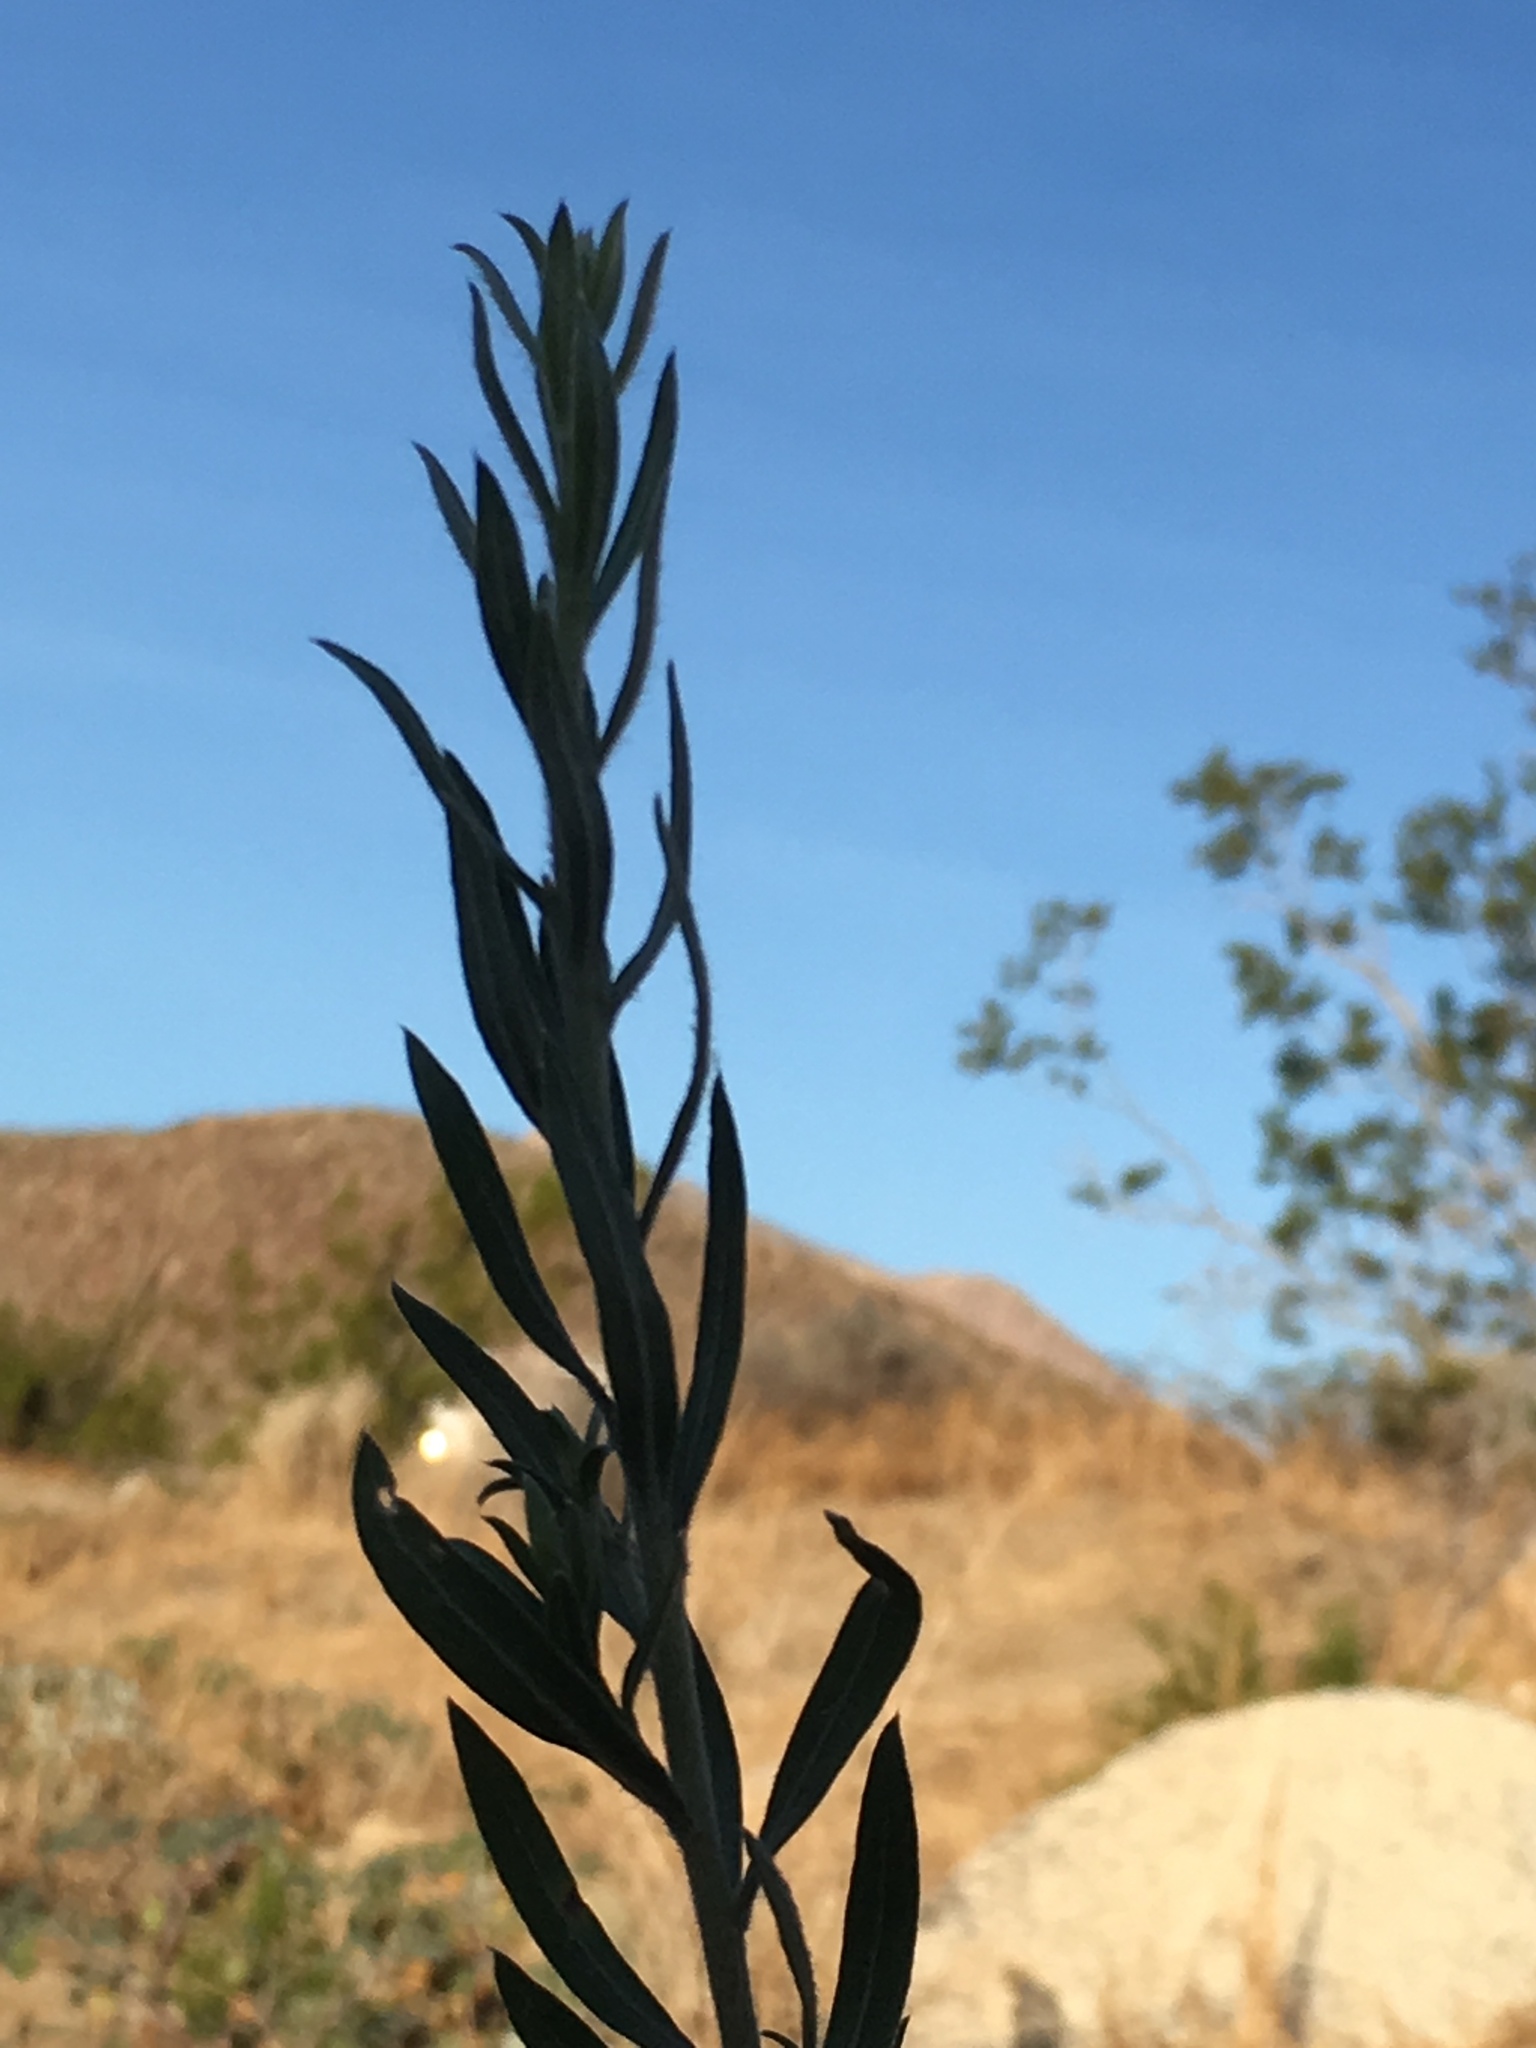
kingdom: Plantae
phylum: Tracheophyta
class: Magnoliopsida
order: Asterales
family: Asteraceae
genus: Pluchea
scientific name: Pluchea sericea
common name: Arrow-weed
